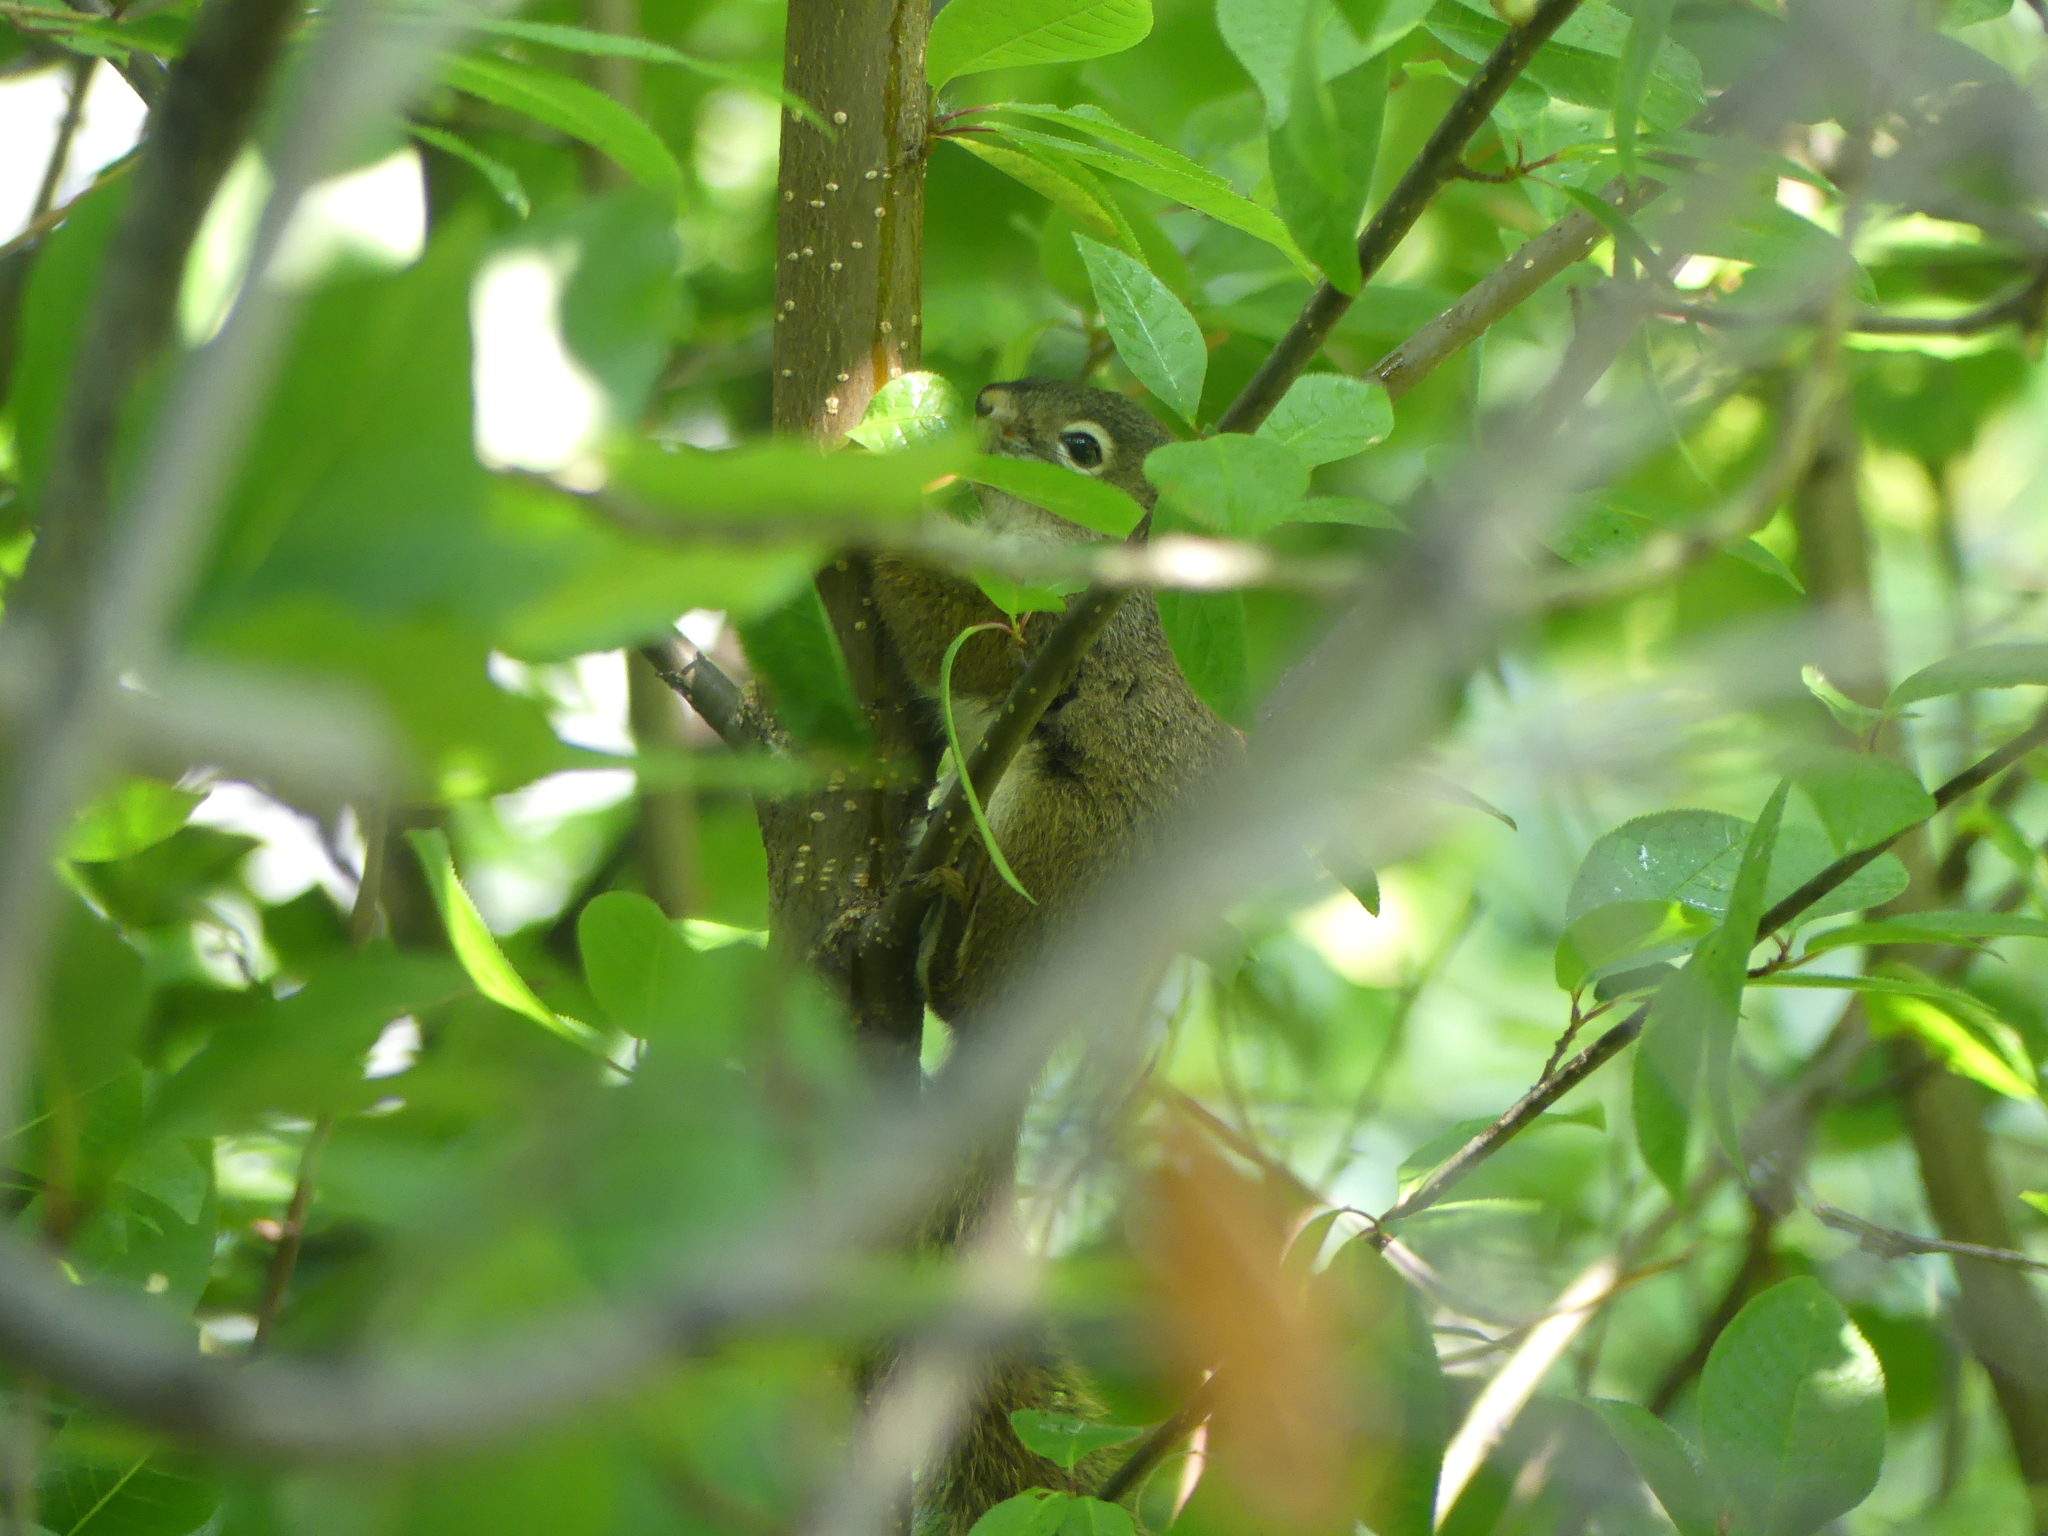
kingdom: Animalia
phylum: Chordata
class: Mammalia
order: Rodentia
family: Sciuridae
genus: Tamiasciurus
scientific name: Tamiasciurus hudsonicus
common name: Red squirrel
